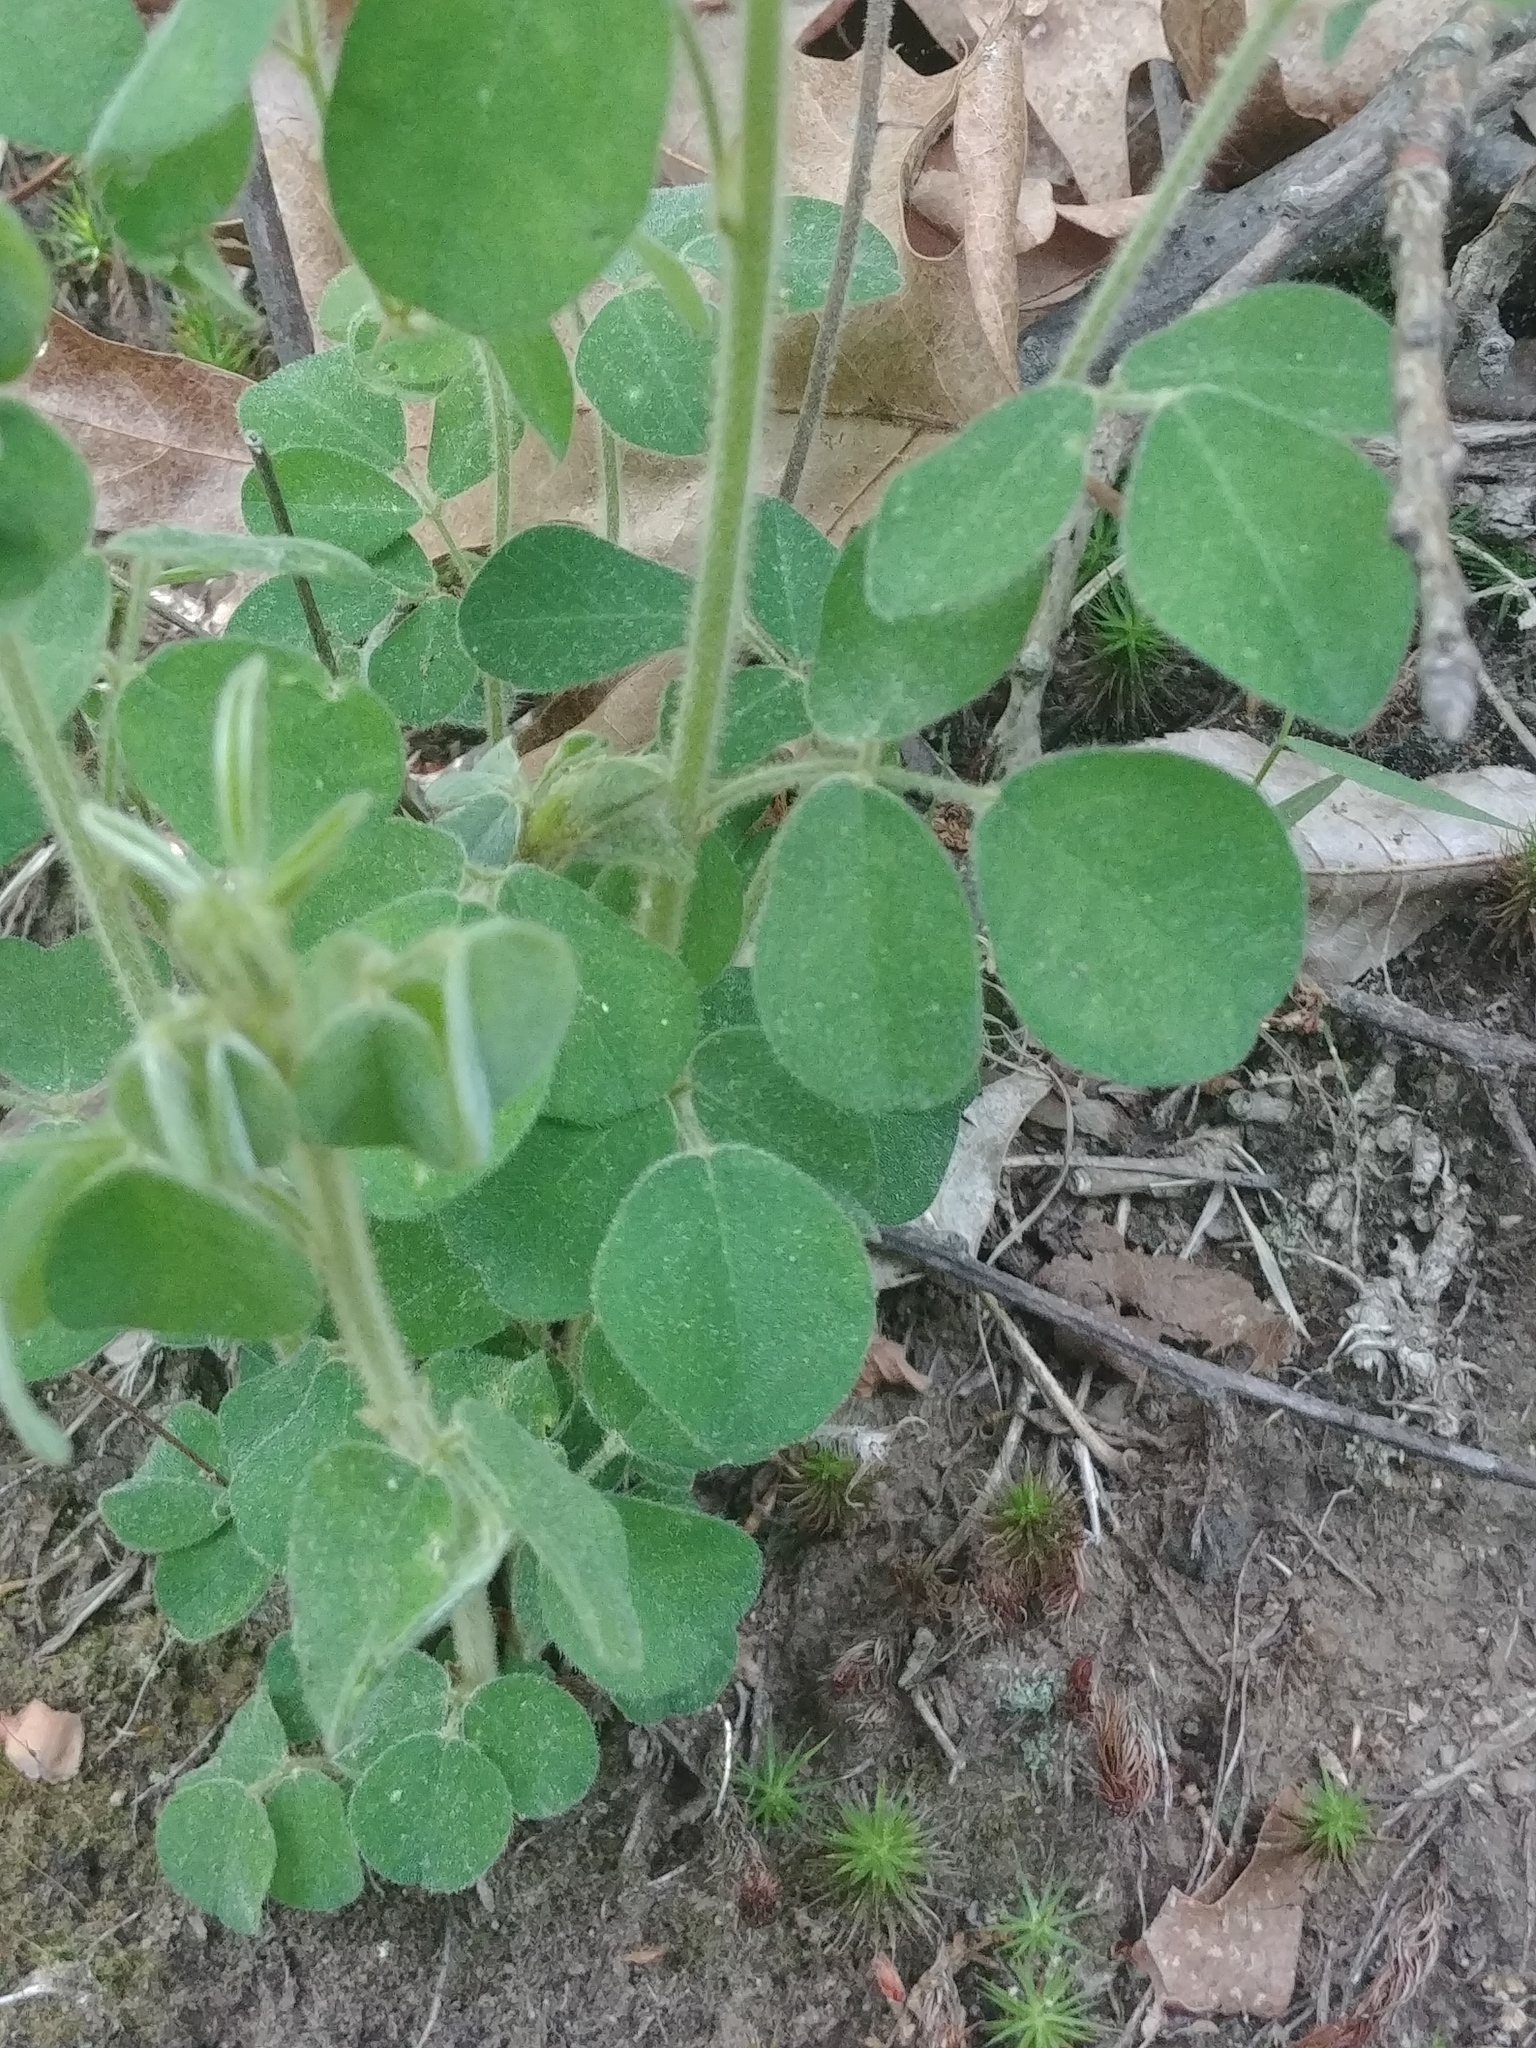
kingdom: Plantae
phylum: Tracheophyta
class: Magnoliopsida
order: Fabales
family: Fabaceae
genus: Lespedeza
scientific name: Lespedeza hirta
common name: Hairy lespedeza
